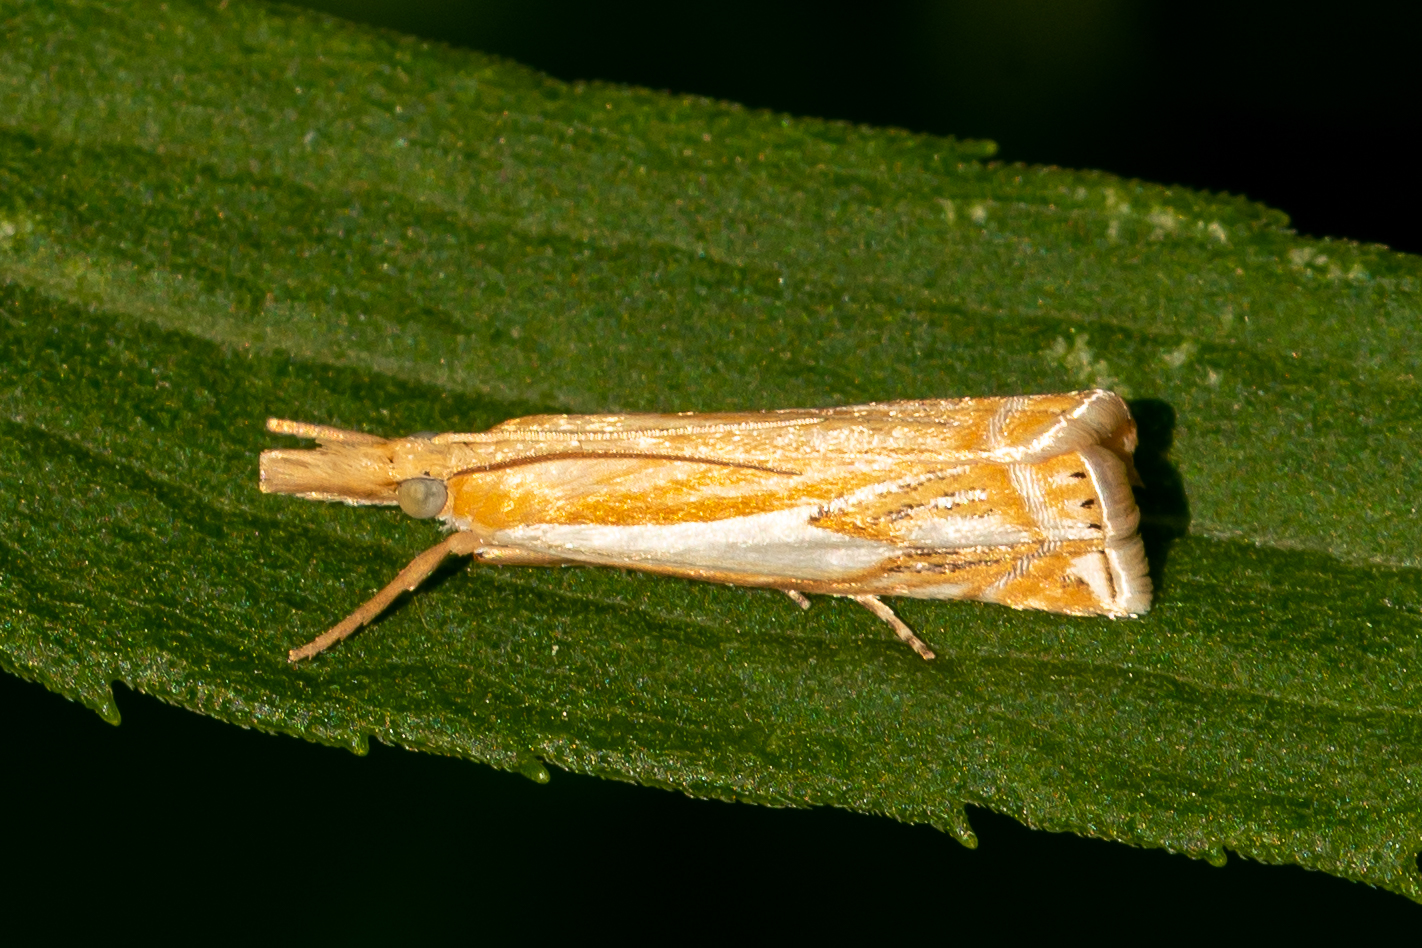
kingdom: Animalia
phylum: Arthropoda
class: Insecta
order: Lepidoptera
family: Crambidae
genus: Crambus
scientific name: Crambus agitatellus
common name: Double-banded grass-veneer
